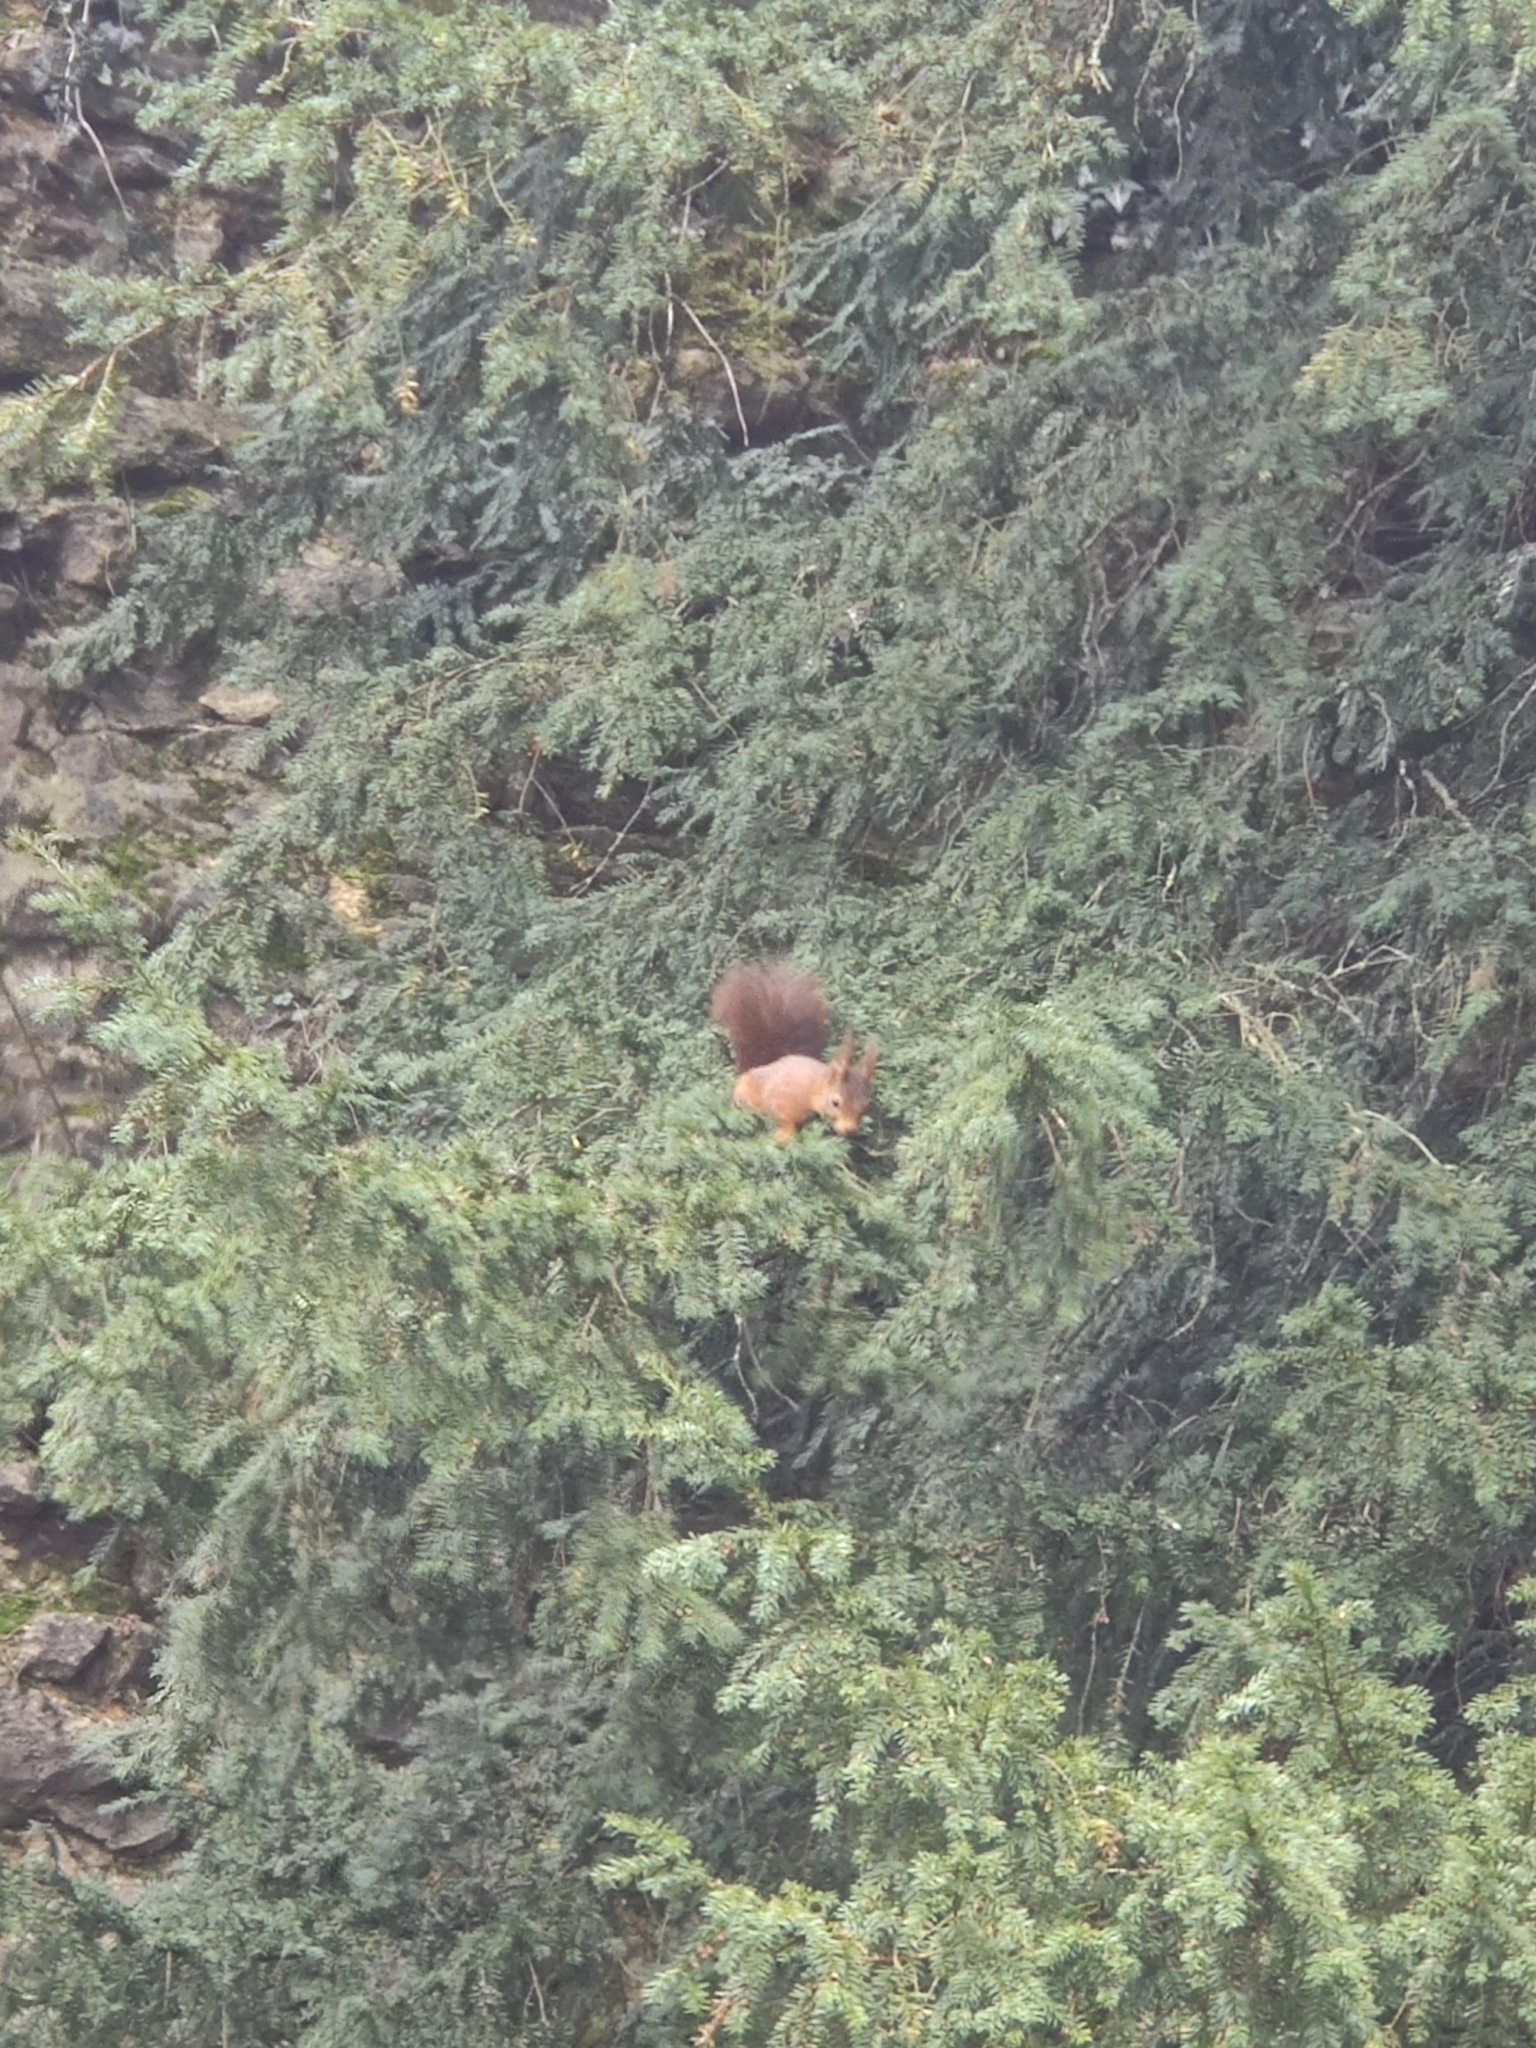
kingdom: Animalia
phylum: Chordata
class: Mammalia
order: Rodentia
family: Sciuridae
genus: Sciurus
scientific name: Sciurus vulgaris
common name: Eurasian red squirrel
